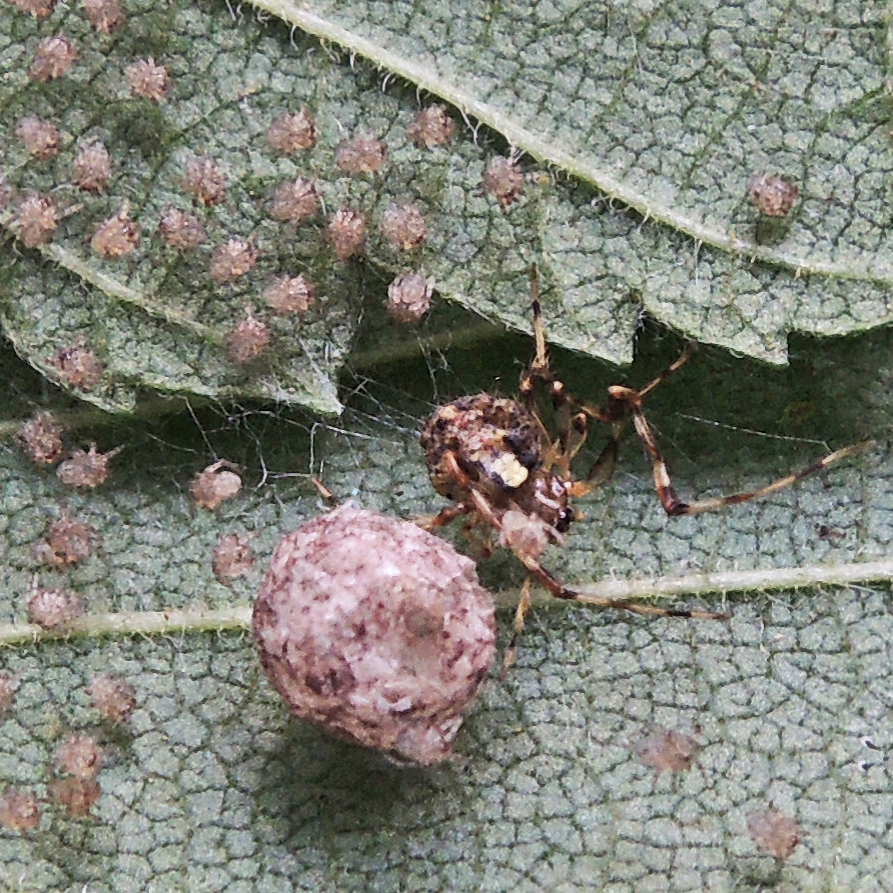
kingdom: Animalia
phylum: Arthropoda
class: Arachnida
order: Araneae
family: Theridiidae
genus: Yunohamella
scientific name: Yunohamella lyrica
